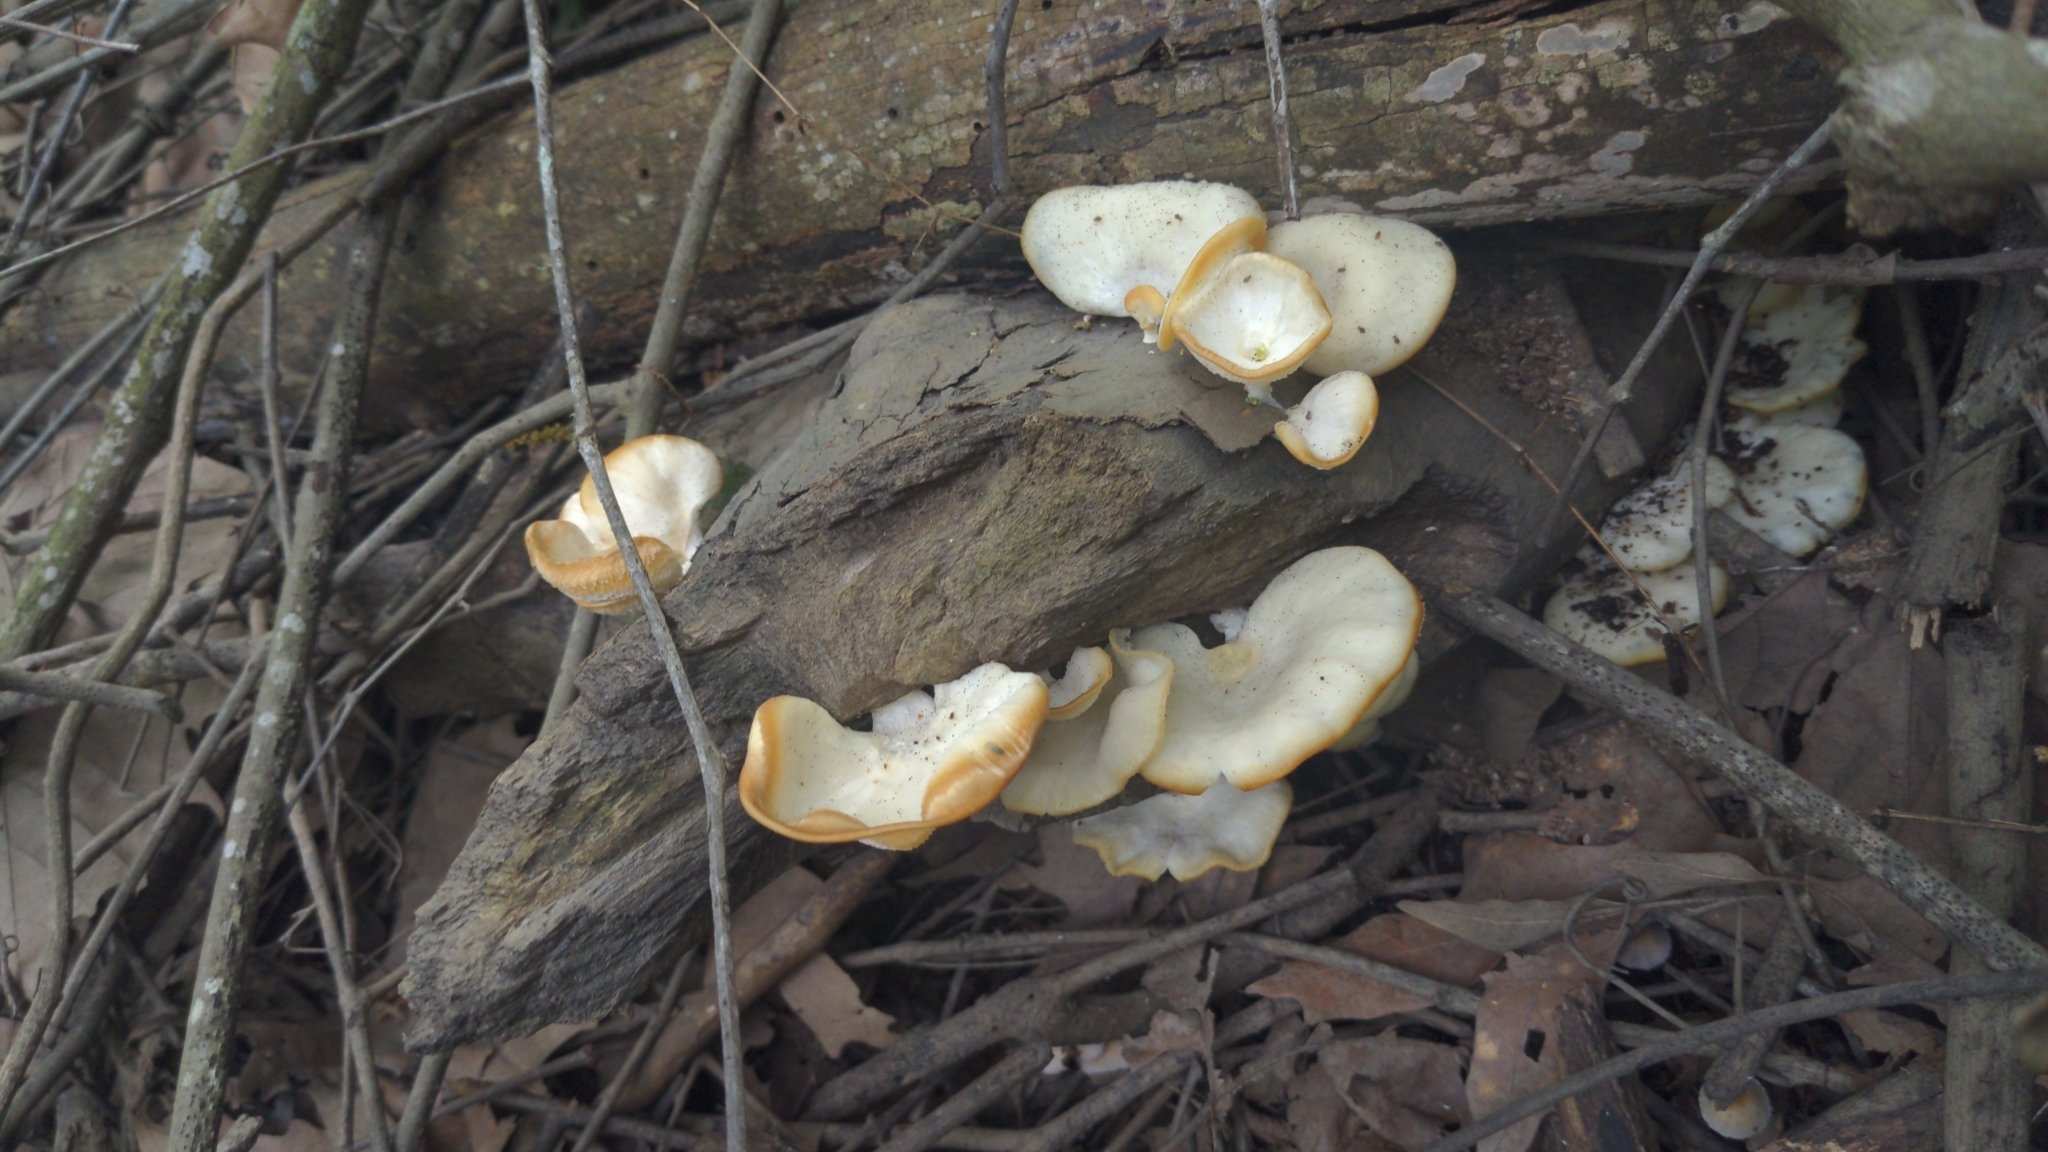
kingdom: Fungi
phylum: Basidiomycota
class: Agaricomycetes
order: Polyporales
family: Polyporaceae
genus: Favolus
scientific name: Favolus tenuiculus
